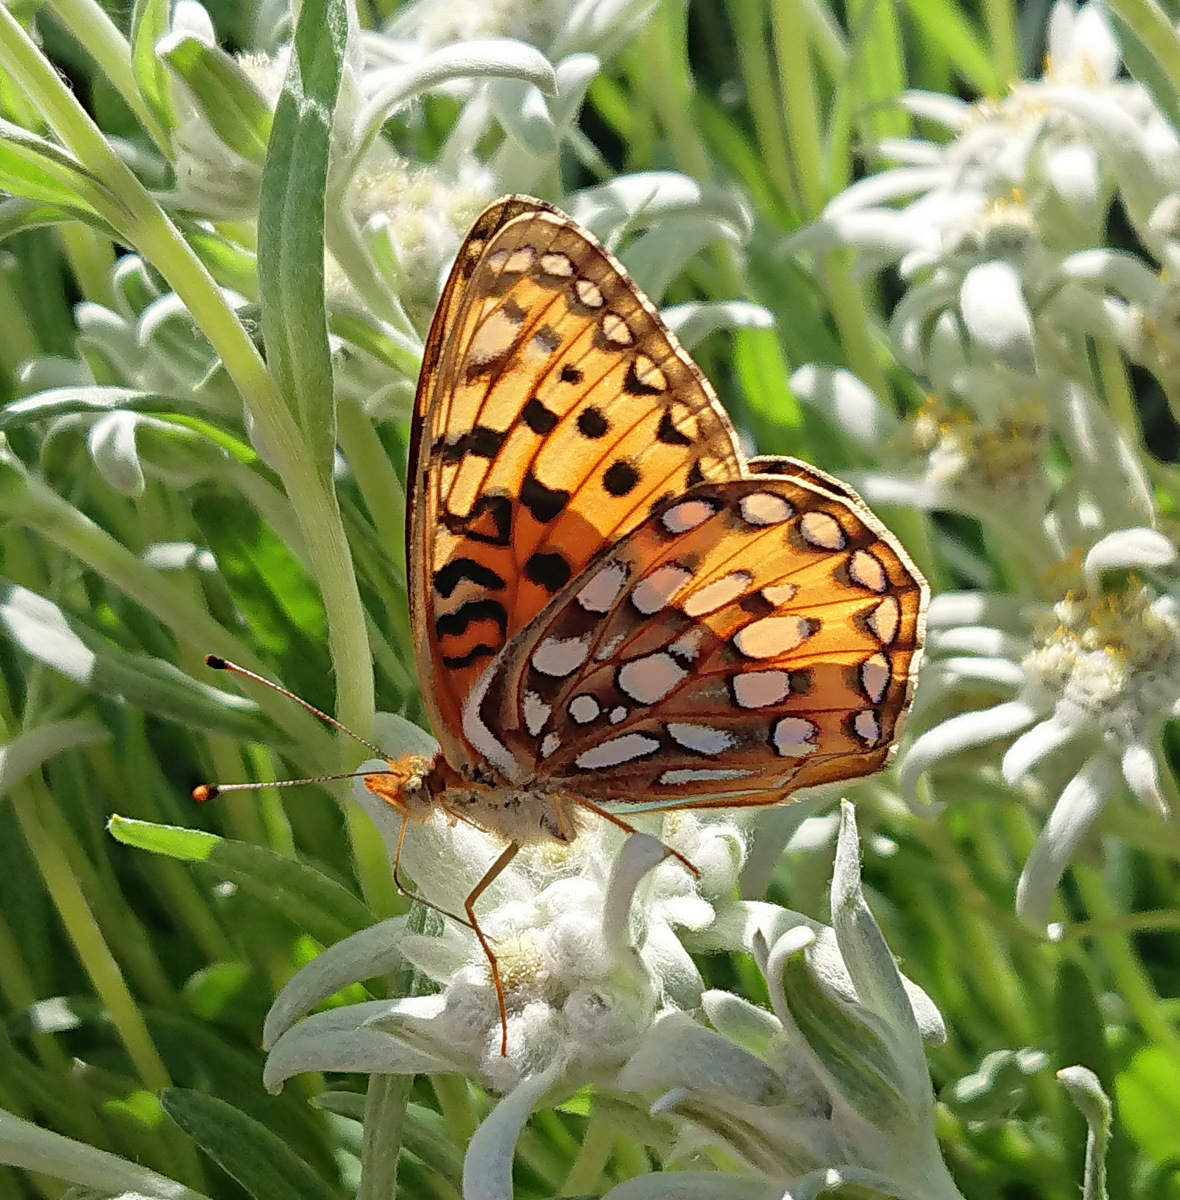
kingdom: Animalia
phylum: Arthropoda
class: Insecta
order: Lepidoptera
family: Nymphalidae
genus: Speyeria
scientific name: Speyeria zerene
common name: Zerene fritillary
